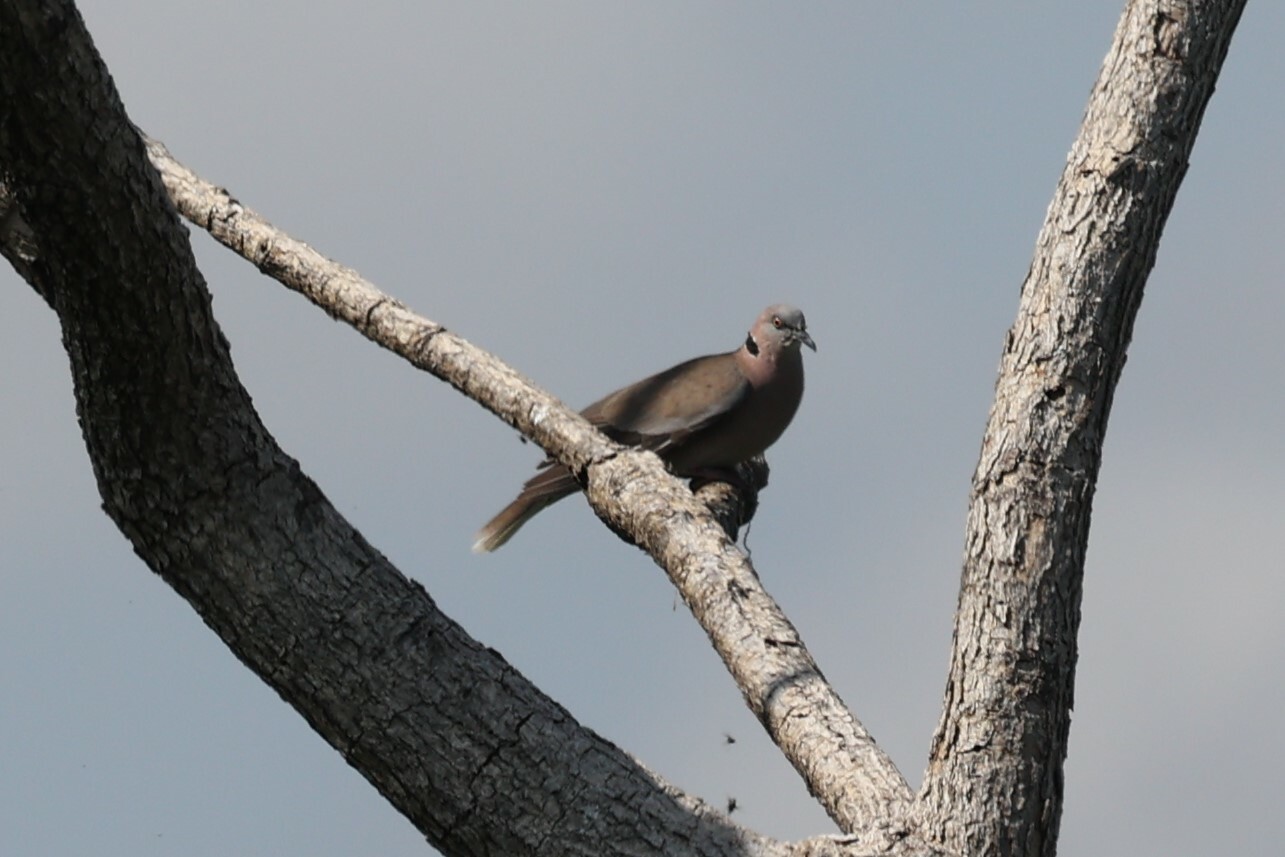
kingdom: Animalia
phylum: Chordata
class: Aves
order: Columbiformes
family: Columbidae
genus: Streptopelia
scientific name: Streptopelia decipiens
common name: Mourning collared dove
